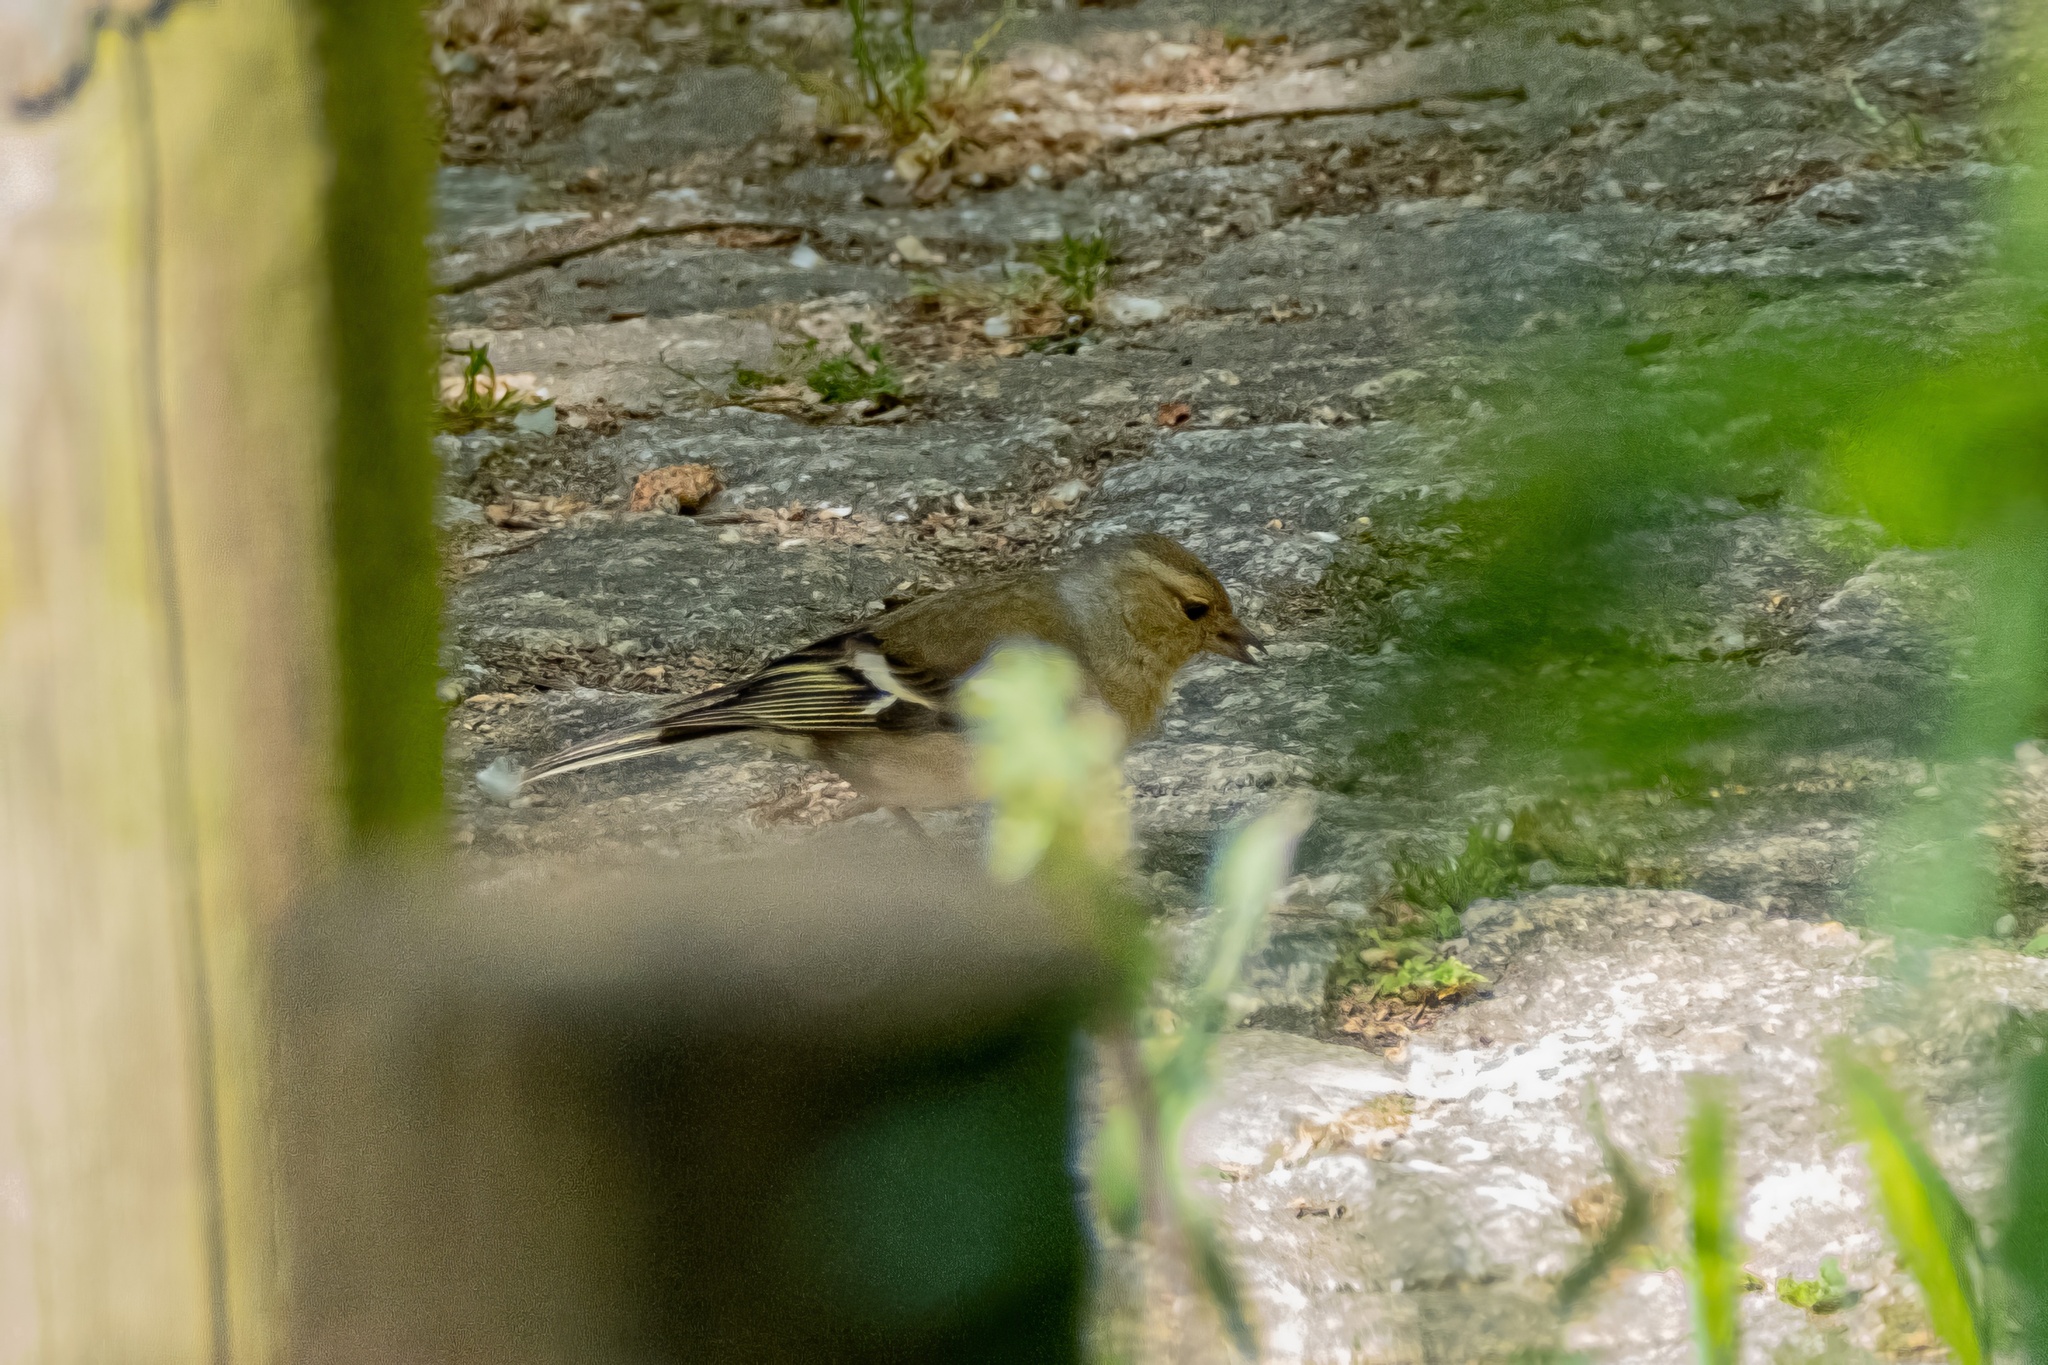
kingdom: Animalia
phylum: Chordata
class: Aves
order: Passeriformes
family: Fringillidae
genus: Fringilla
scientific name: Fringilla coelebs
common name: Common chaffinch
